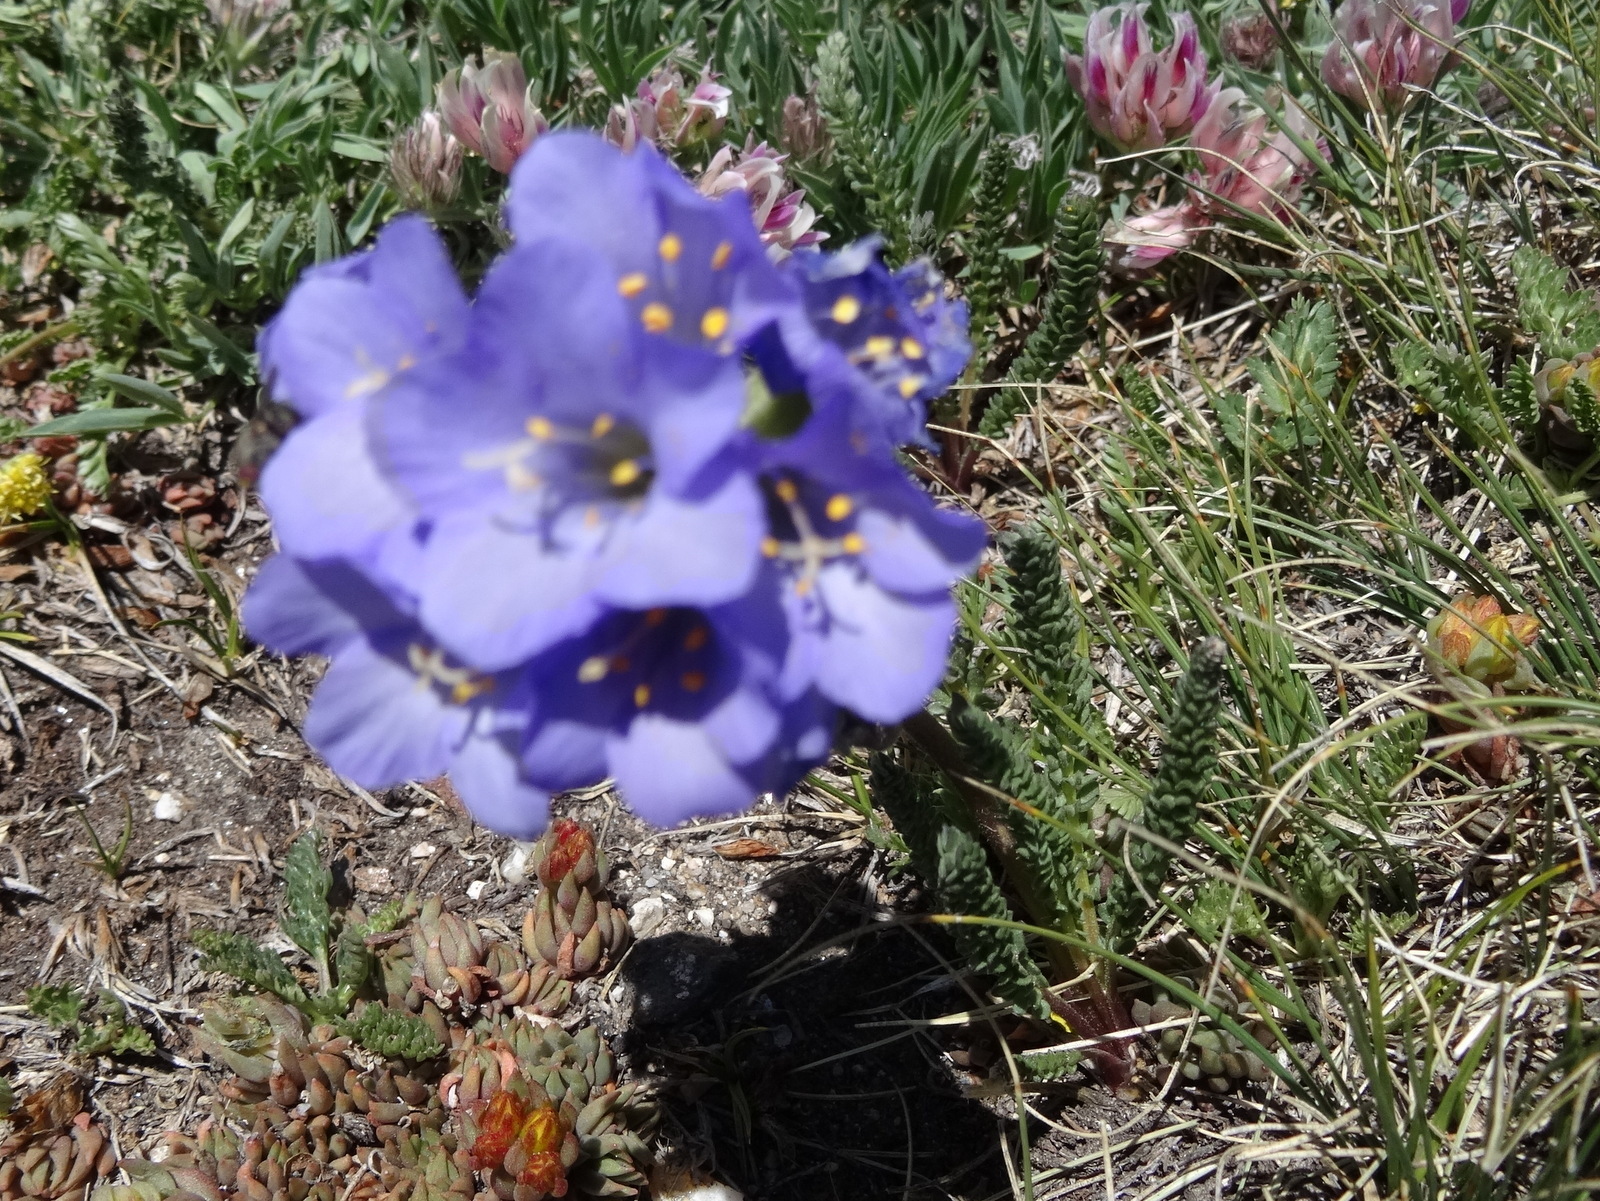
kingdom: Plantae
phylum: Tracheophyta
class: Magnoliopsida
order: Ericales
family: Polemoniaceae
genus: Polemonium
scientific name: Polemonium viscosum
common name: Skunk jacob's-ladder
